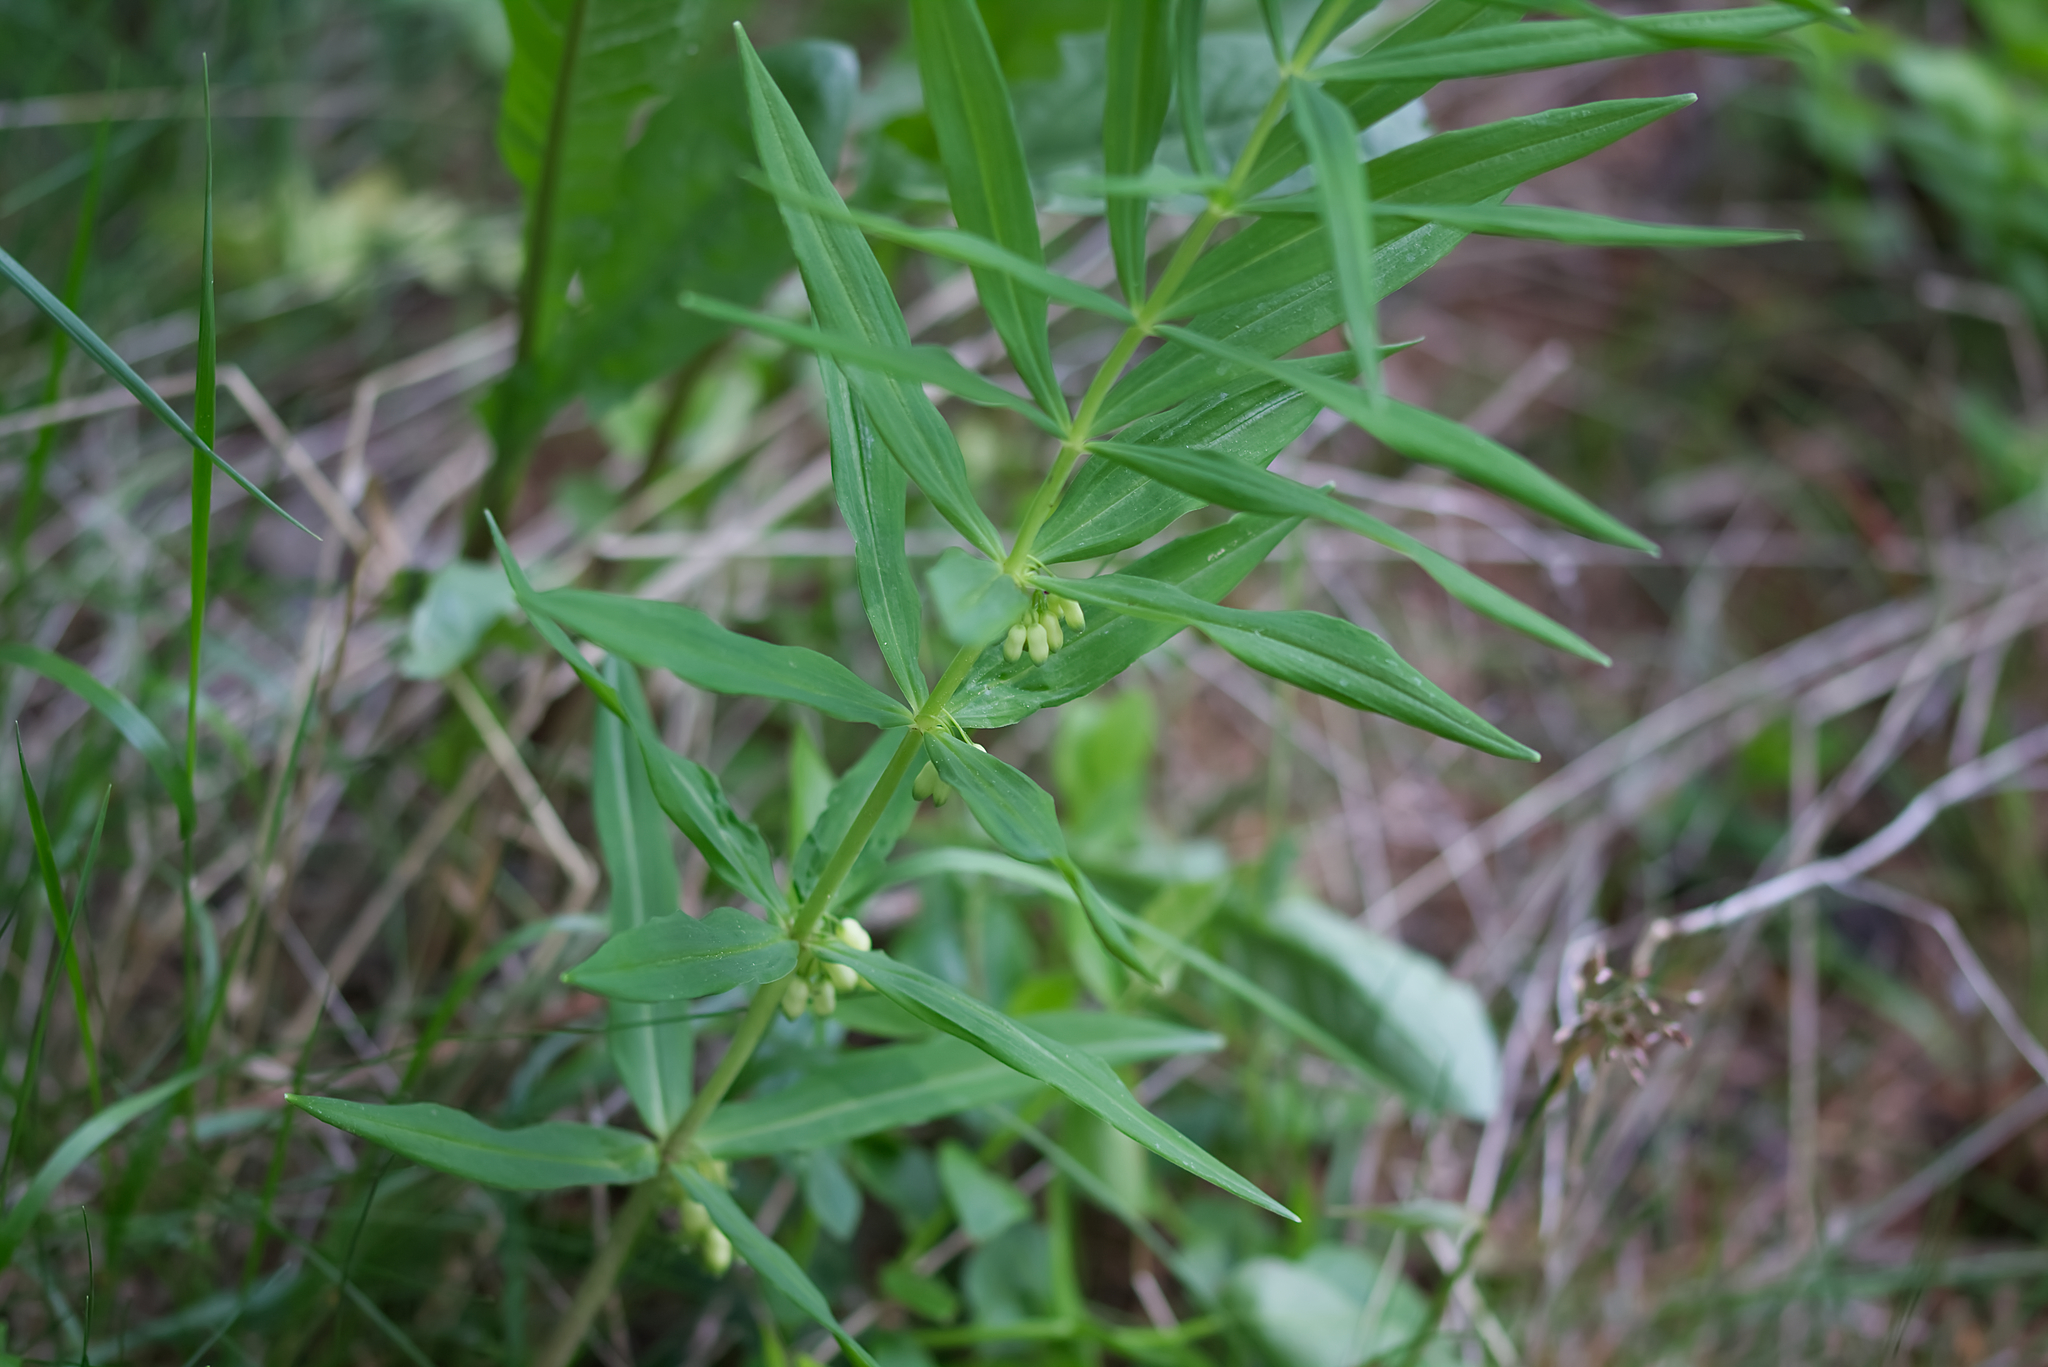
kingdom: Plantae
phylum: Tracheophyta
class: Liliopsida
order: Asparagales
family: Asparagaceae
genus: Polygonatum
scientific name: Polygonatum verticillatum
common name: Whorled solomon's-seal
